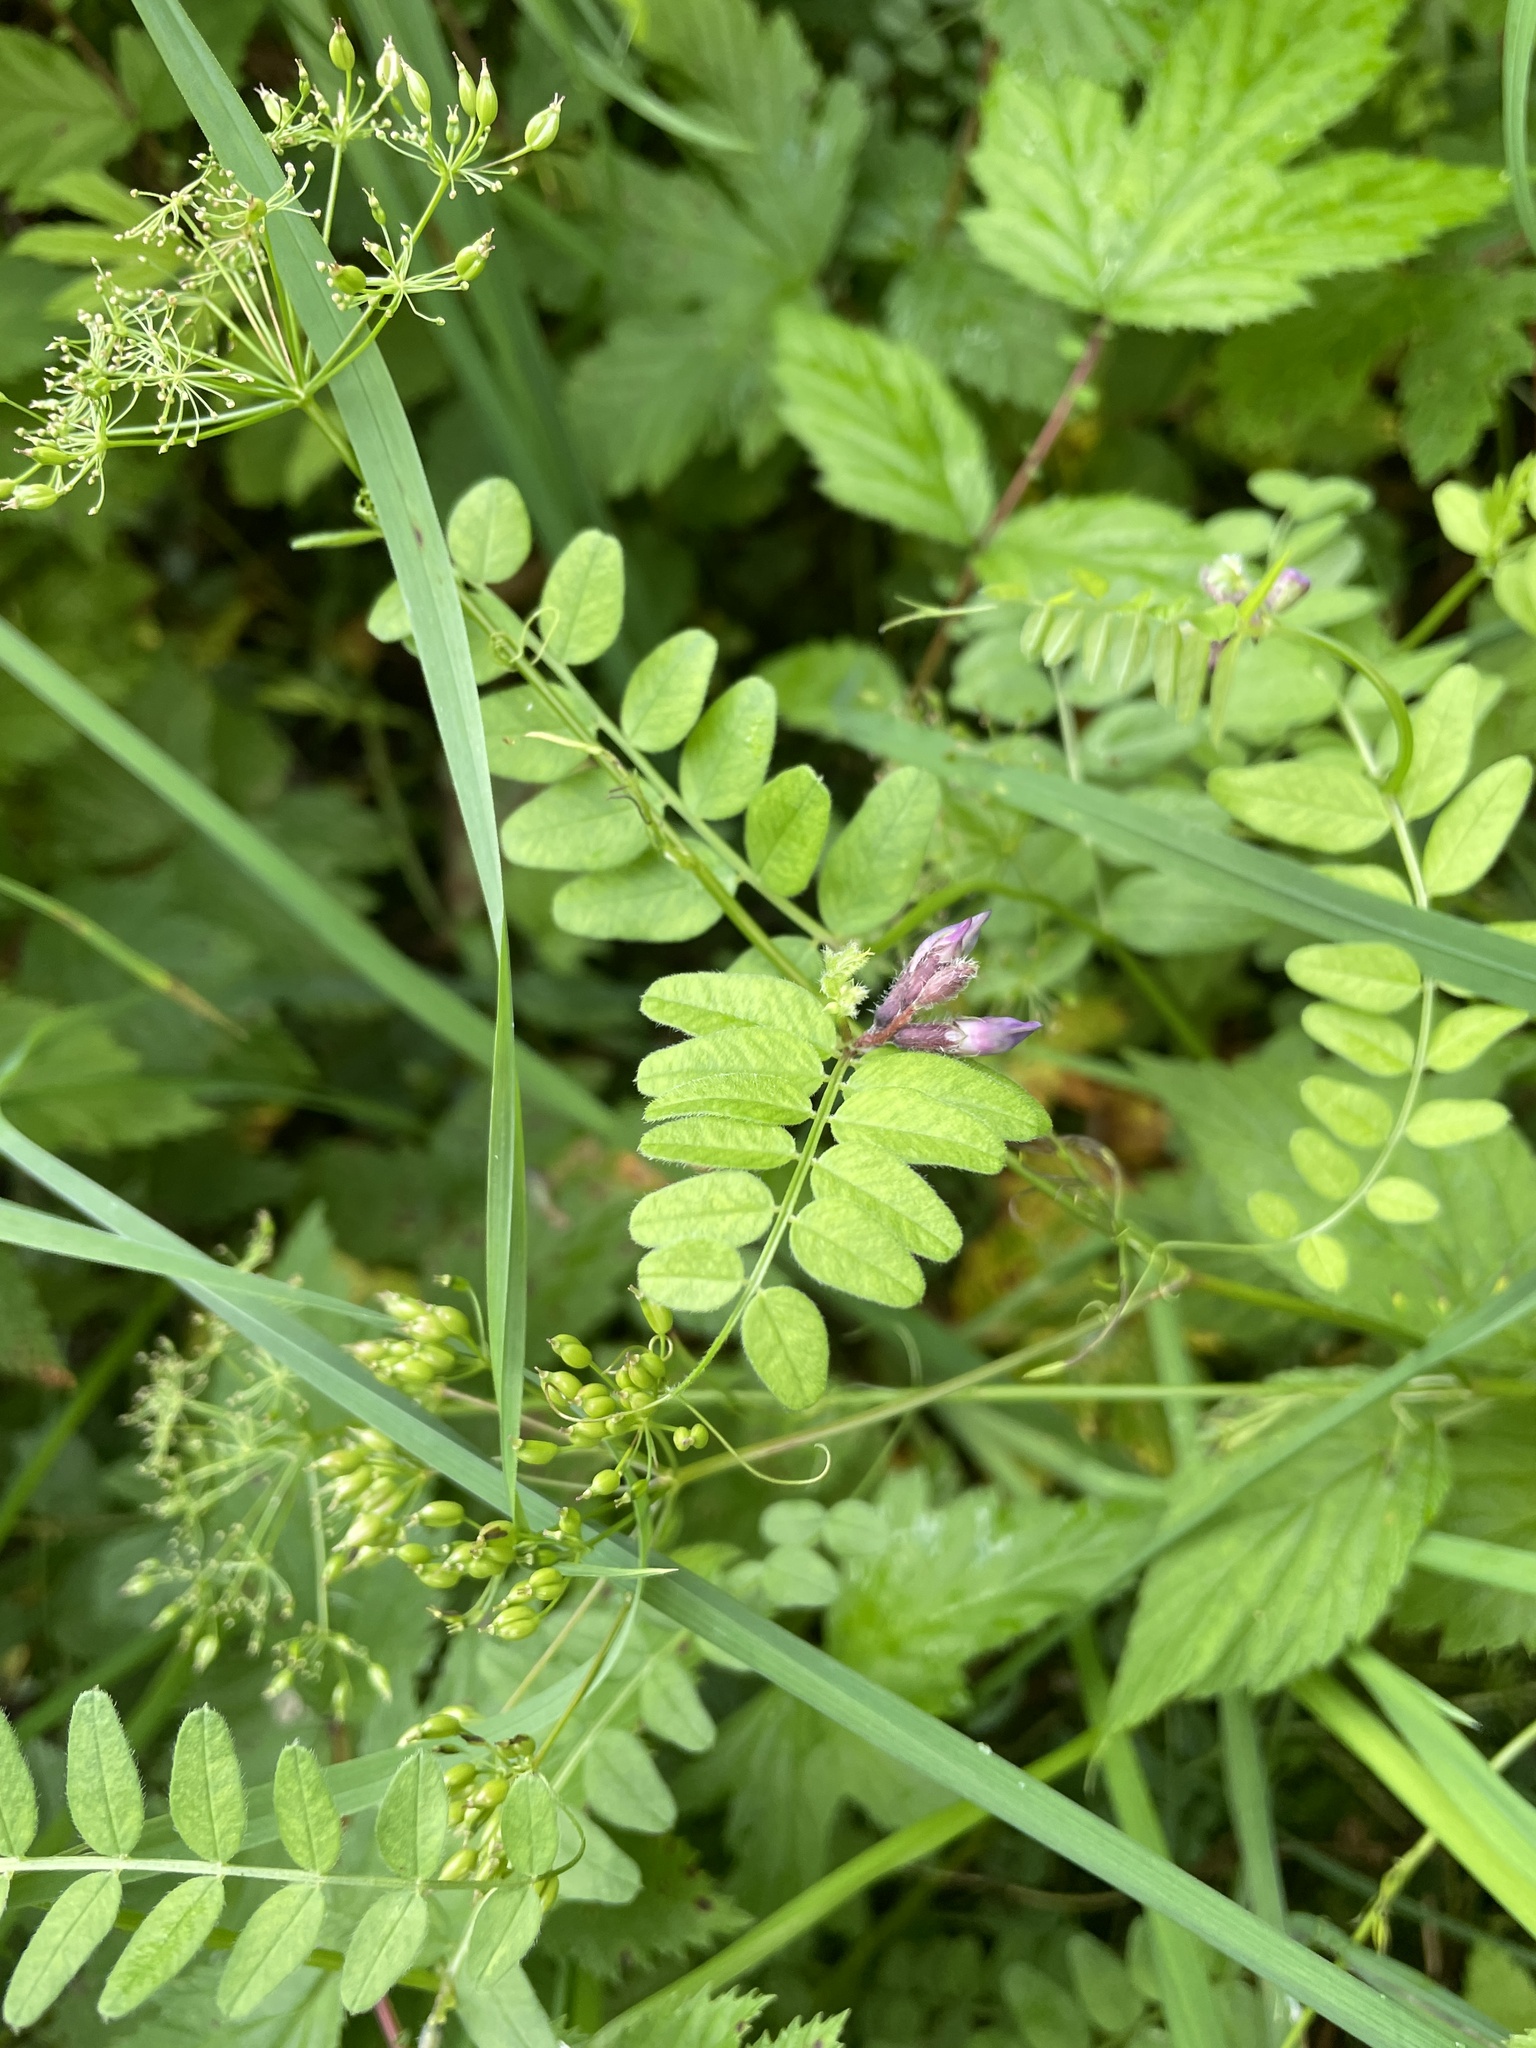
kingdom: Plantae
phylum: Tracheophyta
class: Magnoliopsida
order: Fabales
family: Fabaceae
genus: Vicia
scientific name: Vicia sepium
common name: Bush vetch
